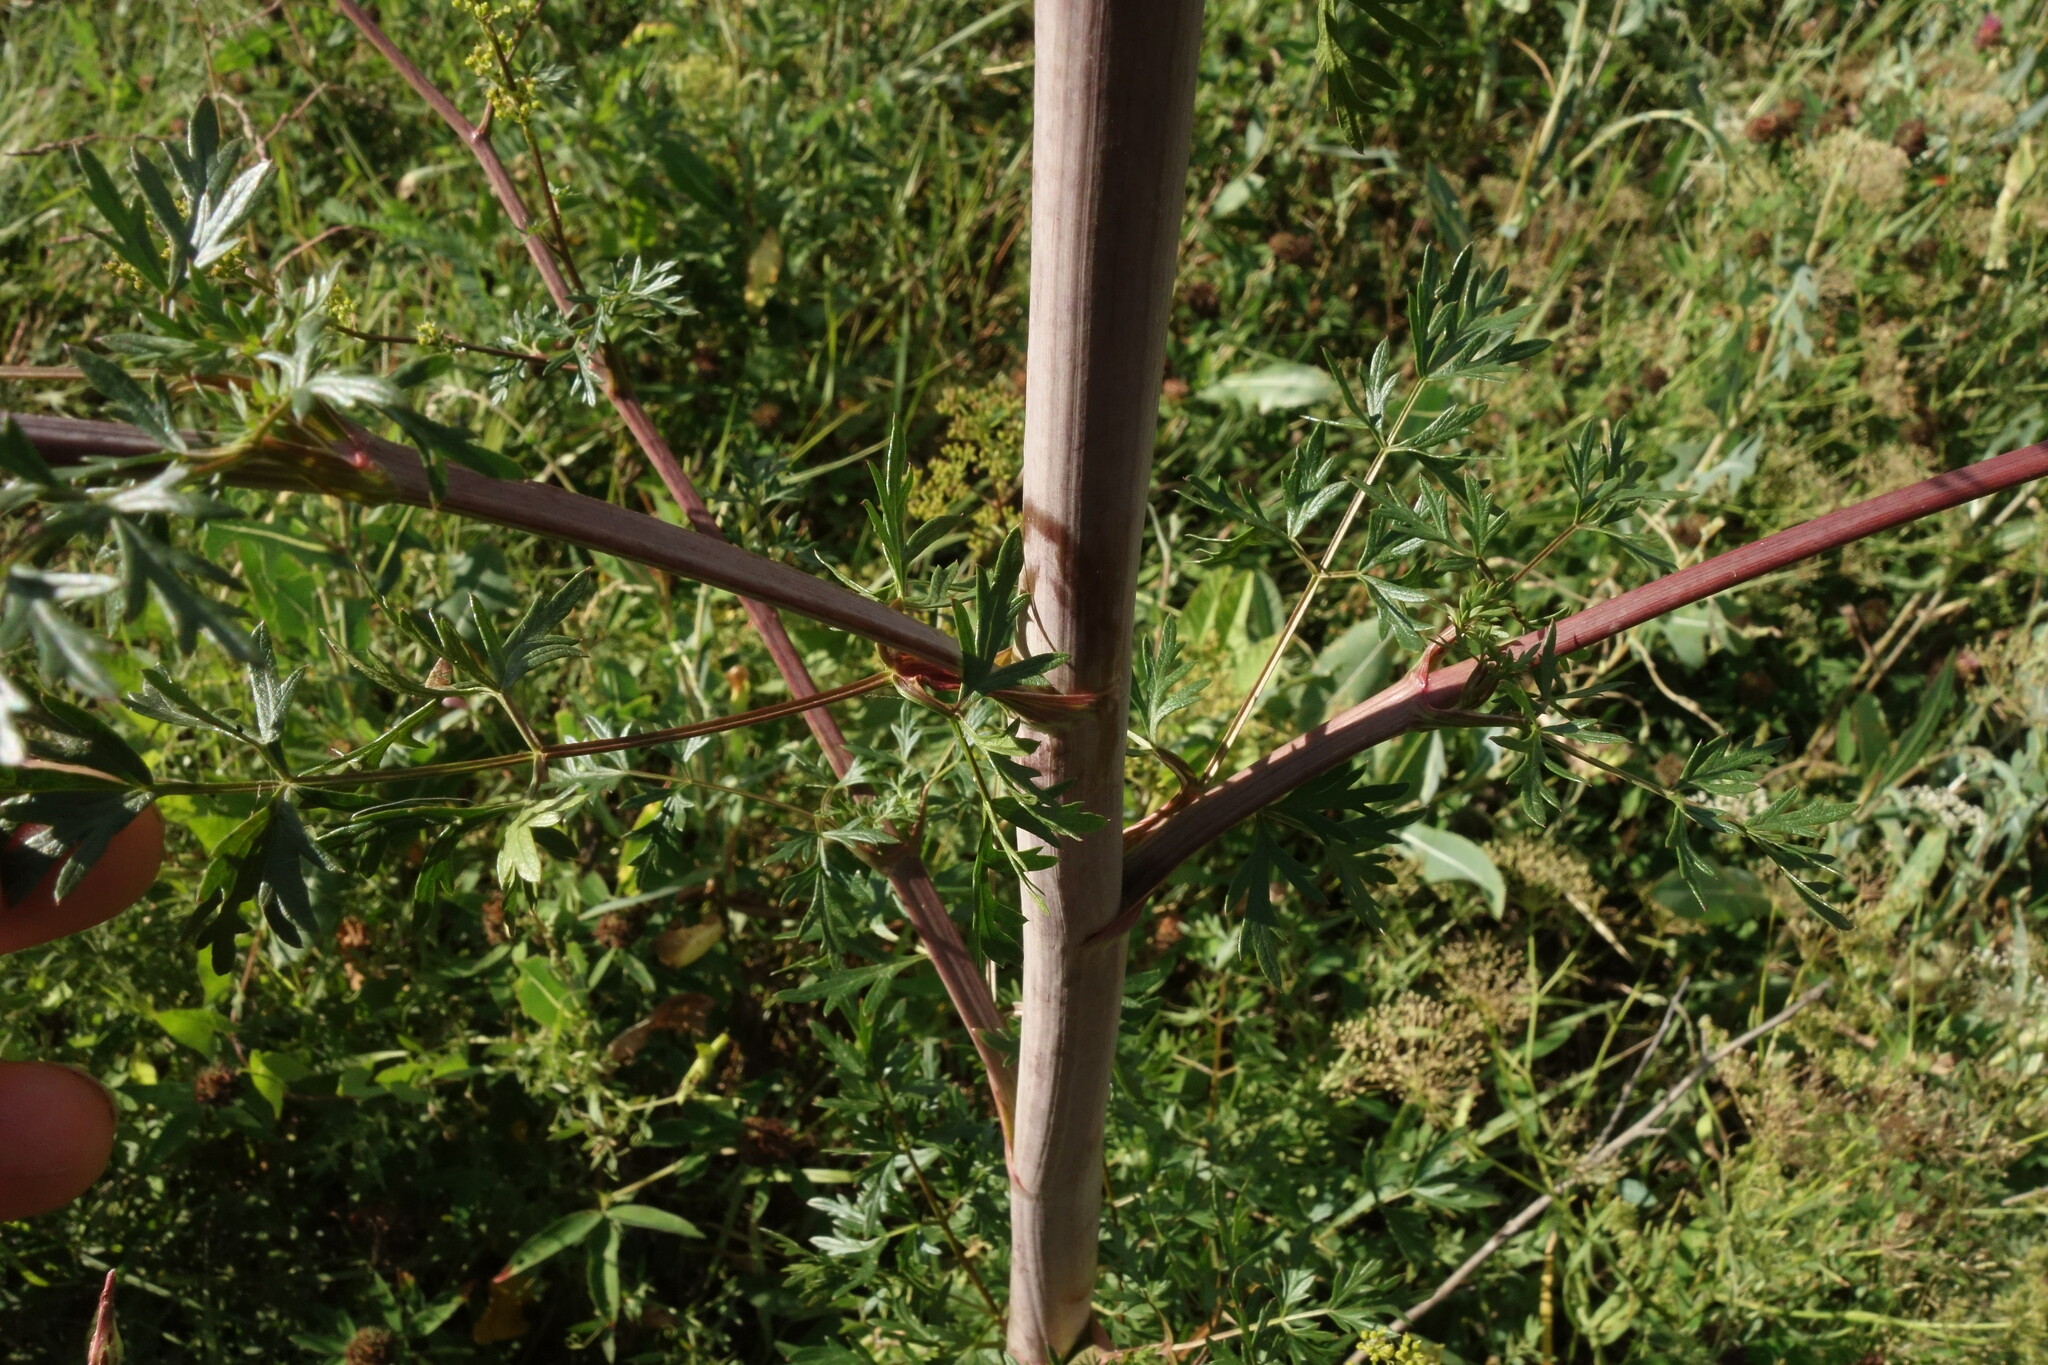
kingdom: Plantae
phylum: Tracheophyta
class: Magnoliopsida
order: Apiales
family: Apiaceae
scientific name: Apiaceae
